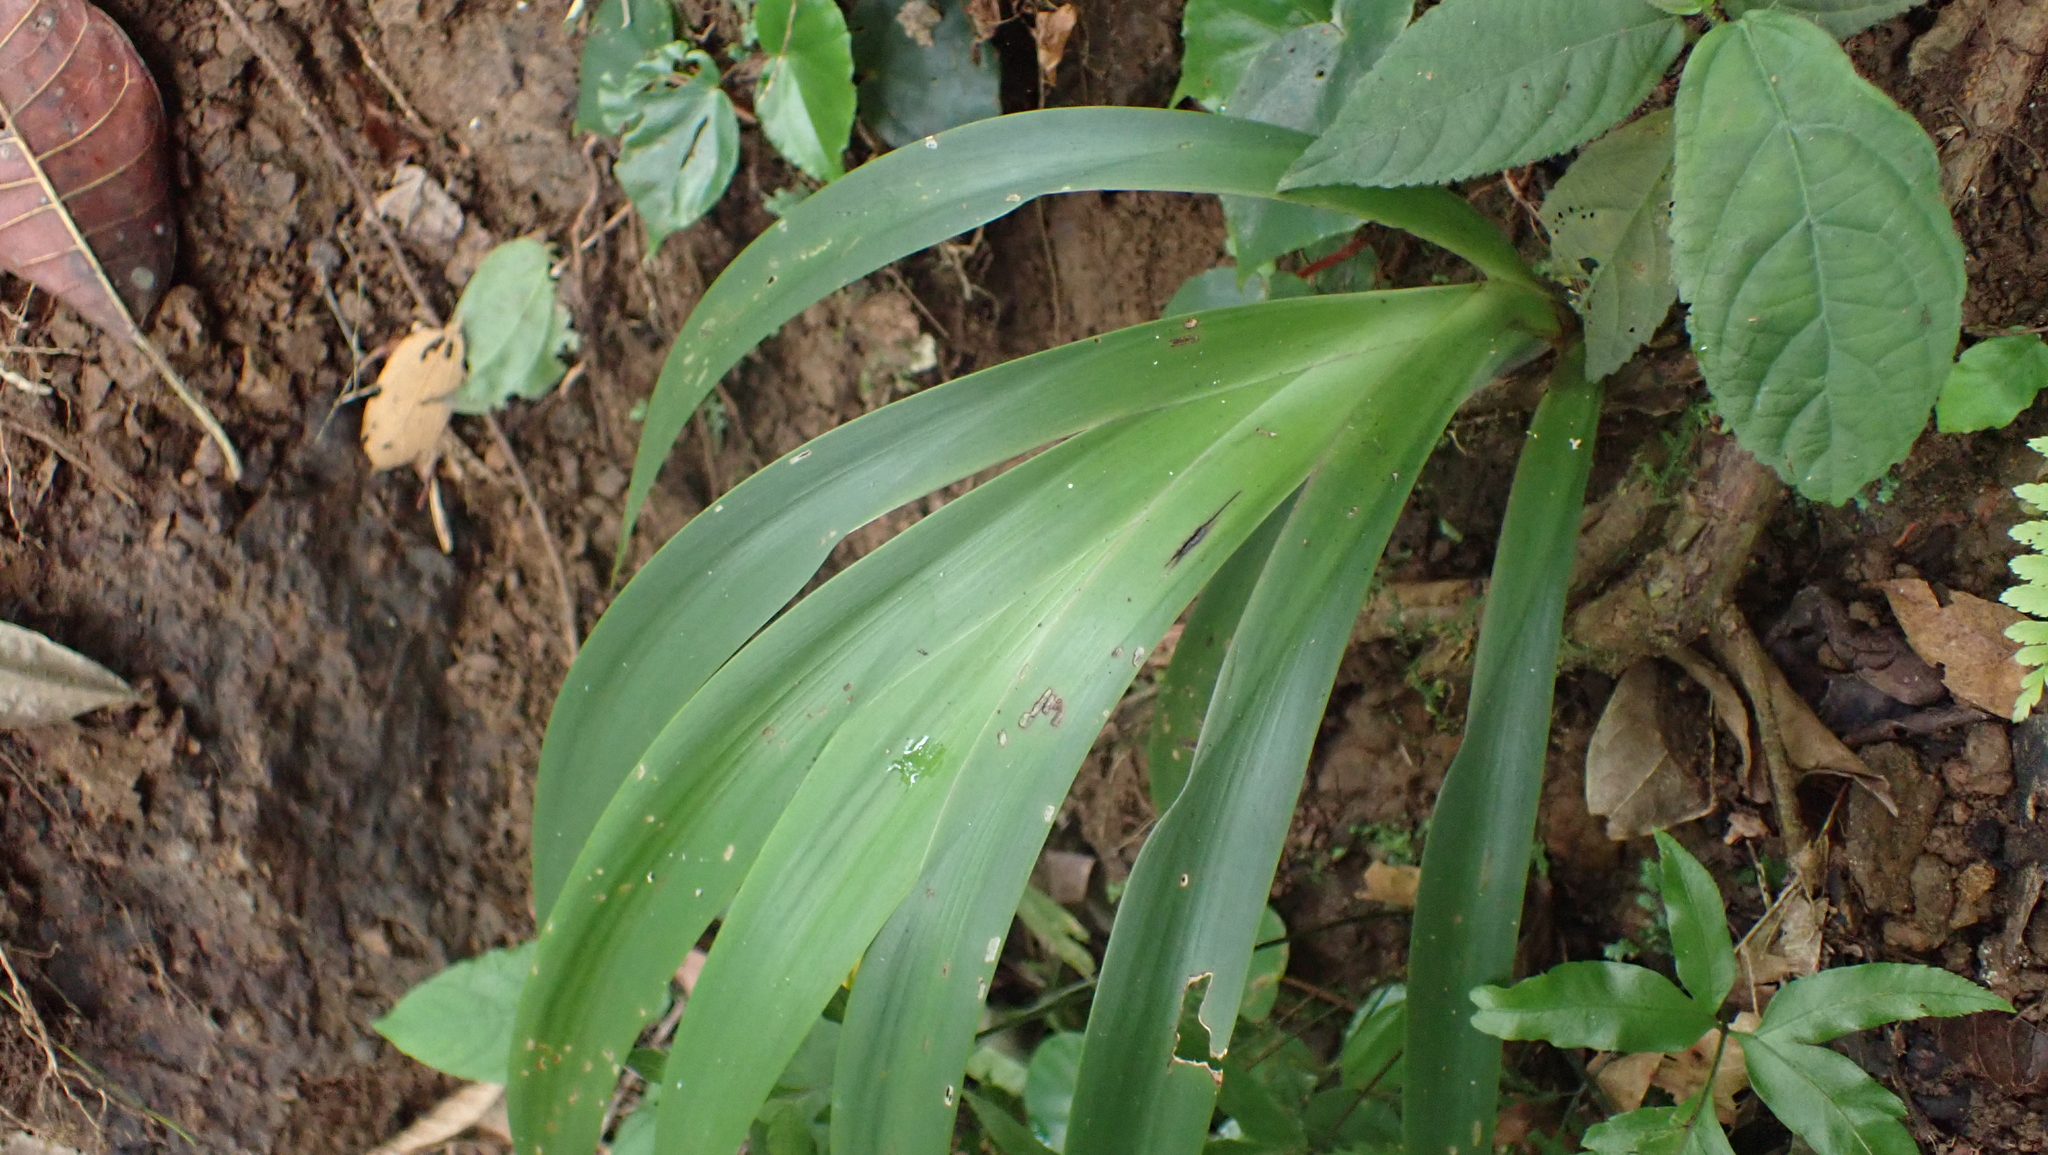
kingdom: Plantae
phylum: Tracheophyta
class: Liliopsida
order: Commelinales
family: Haemodoraceae
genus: Xiphidium
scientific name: Xiphidium caeruleum
